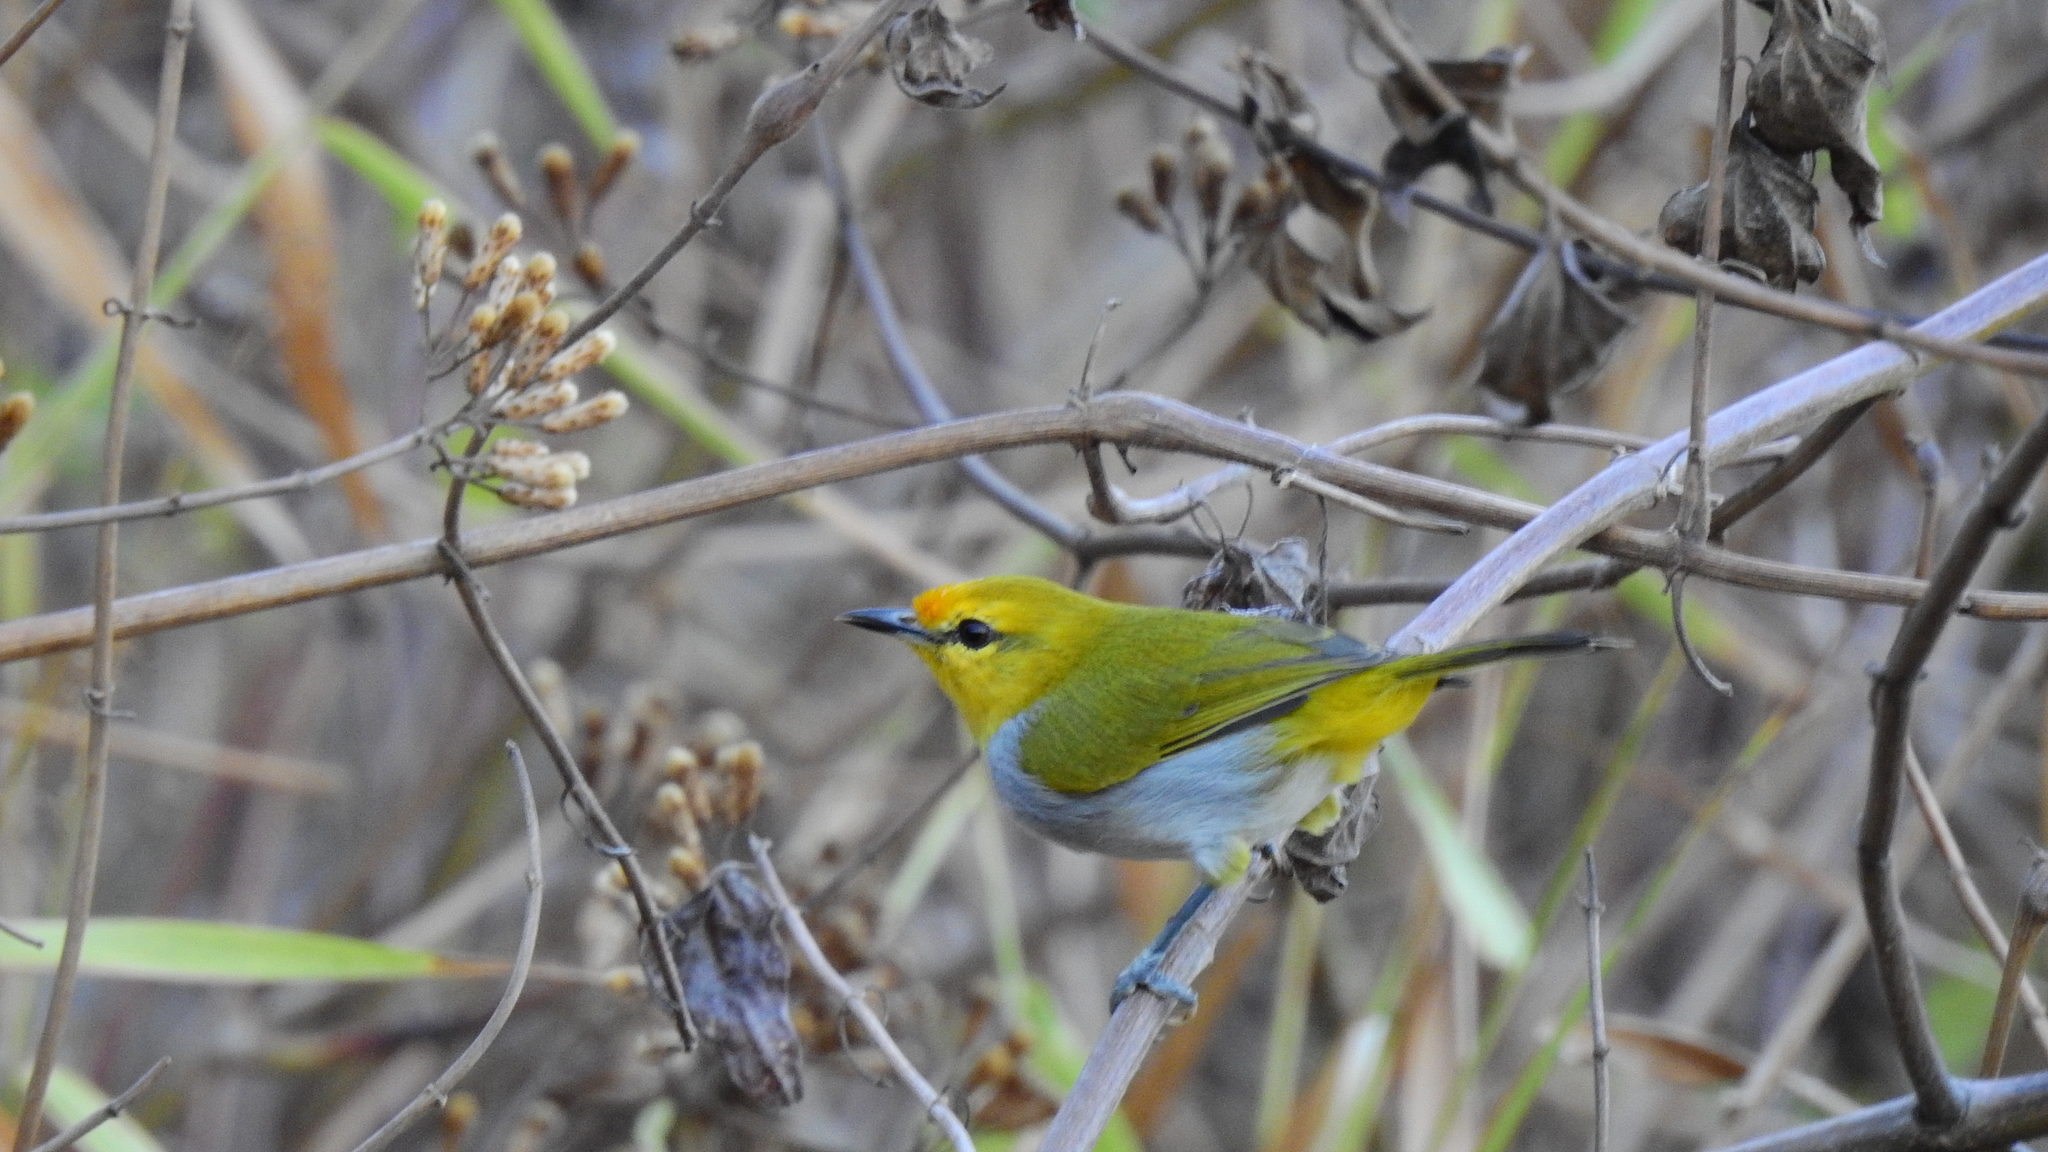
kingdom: Animalia
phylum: Chordata
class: Aves
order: Passeriformes
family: Zosteropidae
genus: Zosterops
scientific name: Zosterops wallacei
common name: Yellow-ringed white-eye
